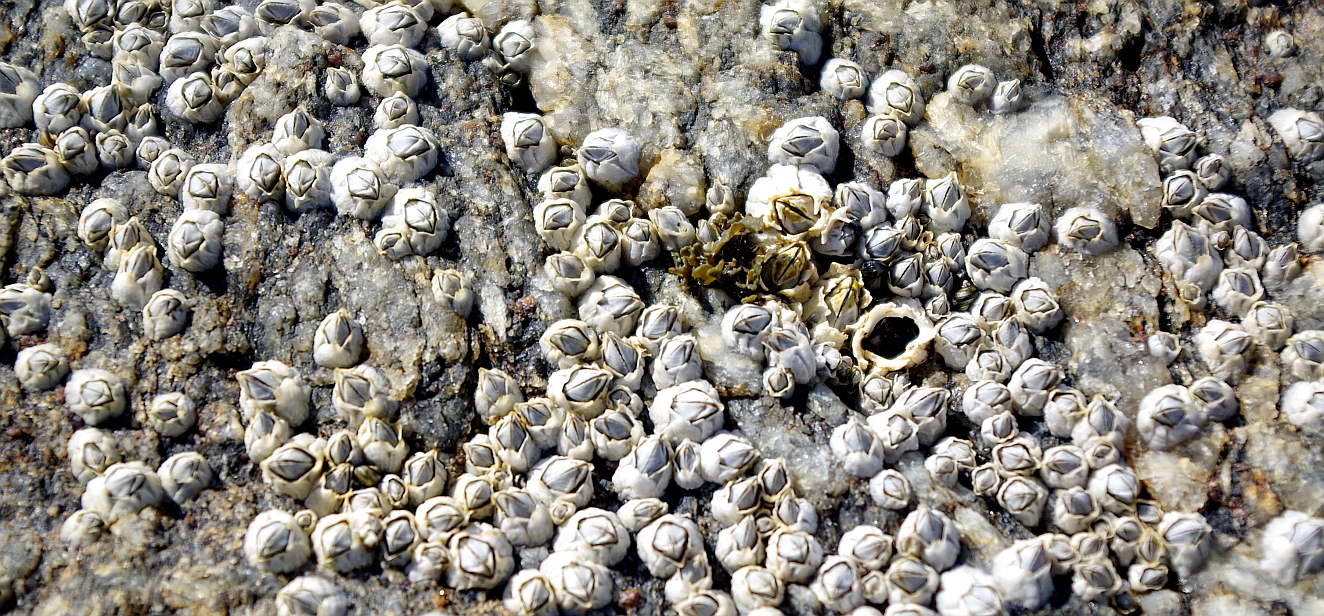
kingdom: Animalia
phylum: Arthropoda
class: Maxillopoda
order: Sessilia
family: Archaeobalanidae
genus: Semibalanus
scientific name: Semibalanus balanoides
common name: Acorn barnacle
